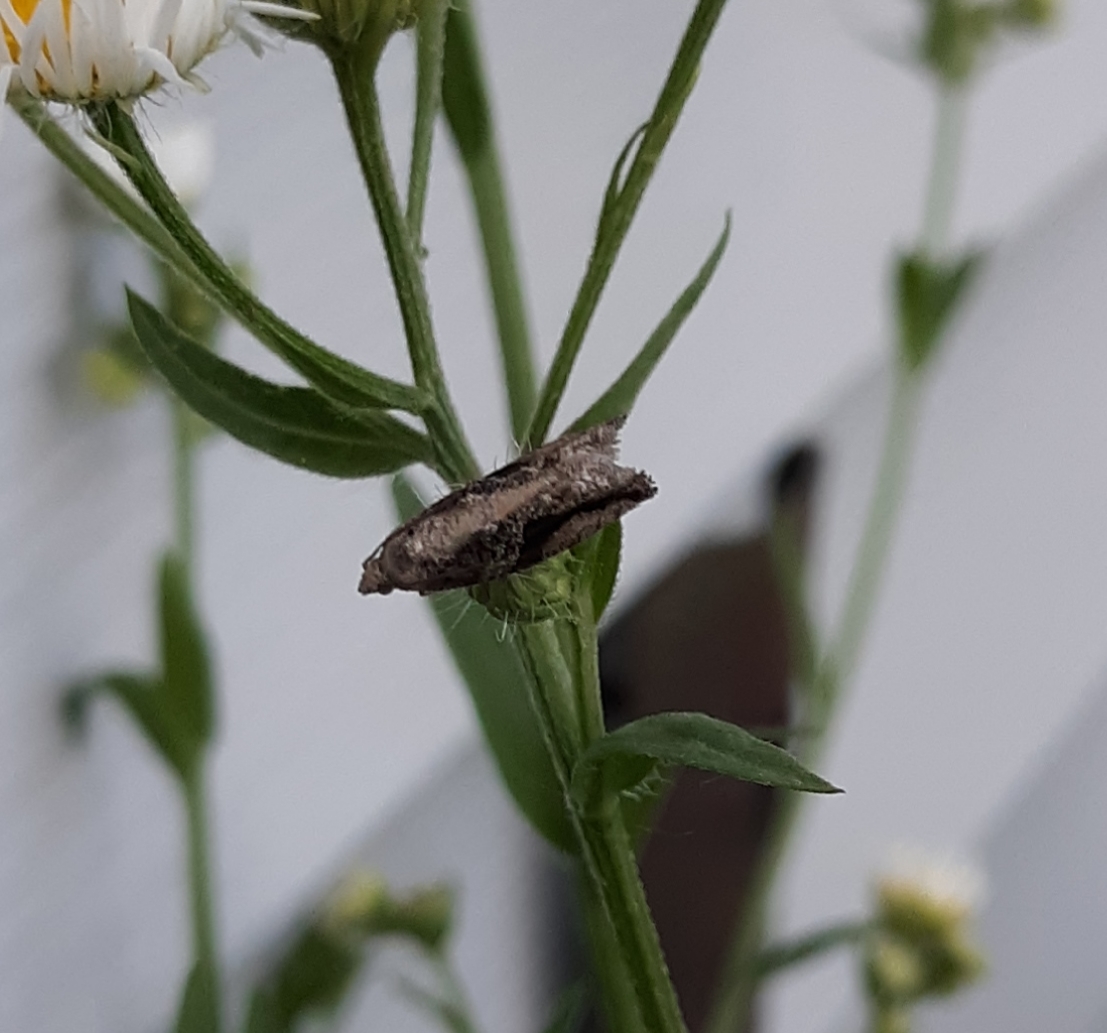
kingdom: Animalia
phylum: Arthropoda
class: Insecta
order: Lepidoptera
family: Tortricidae
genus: Proteoteras
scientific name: Proteoteras crescentana
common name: Black-crescent proteoteras moth
